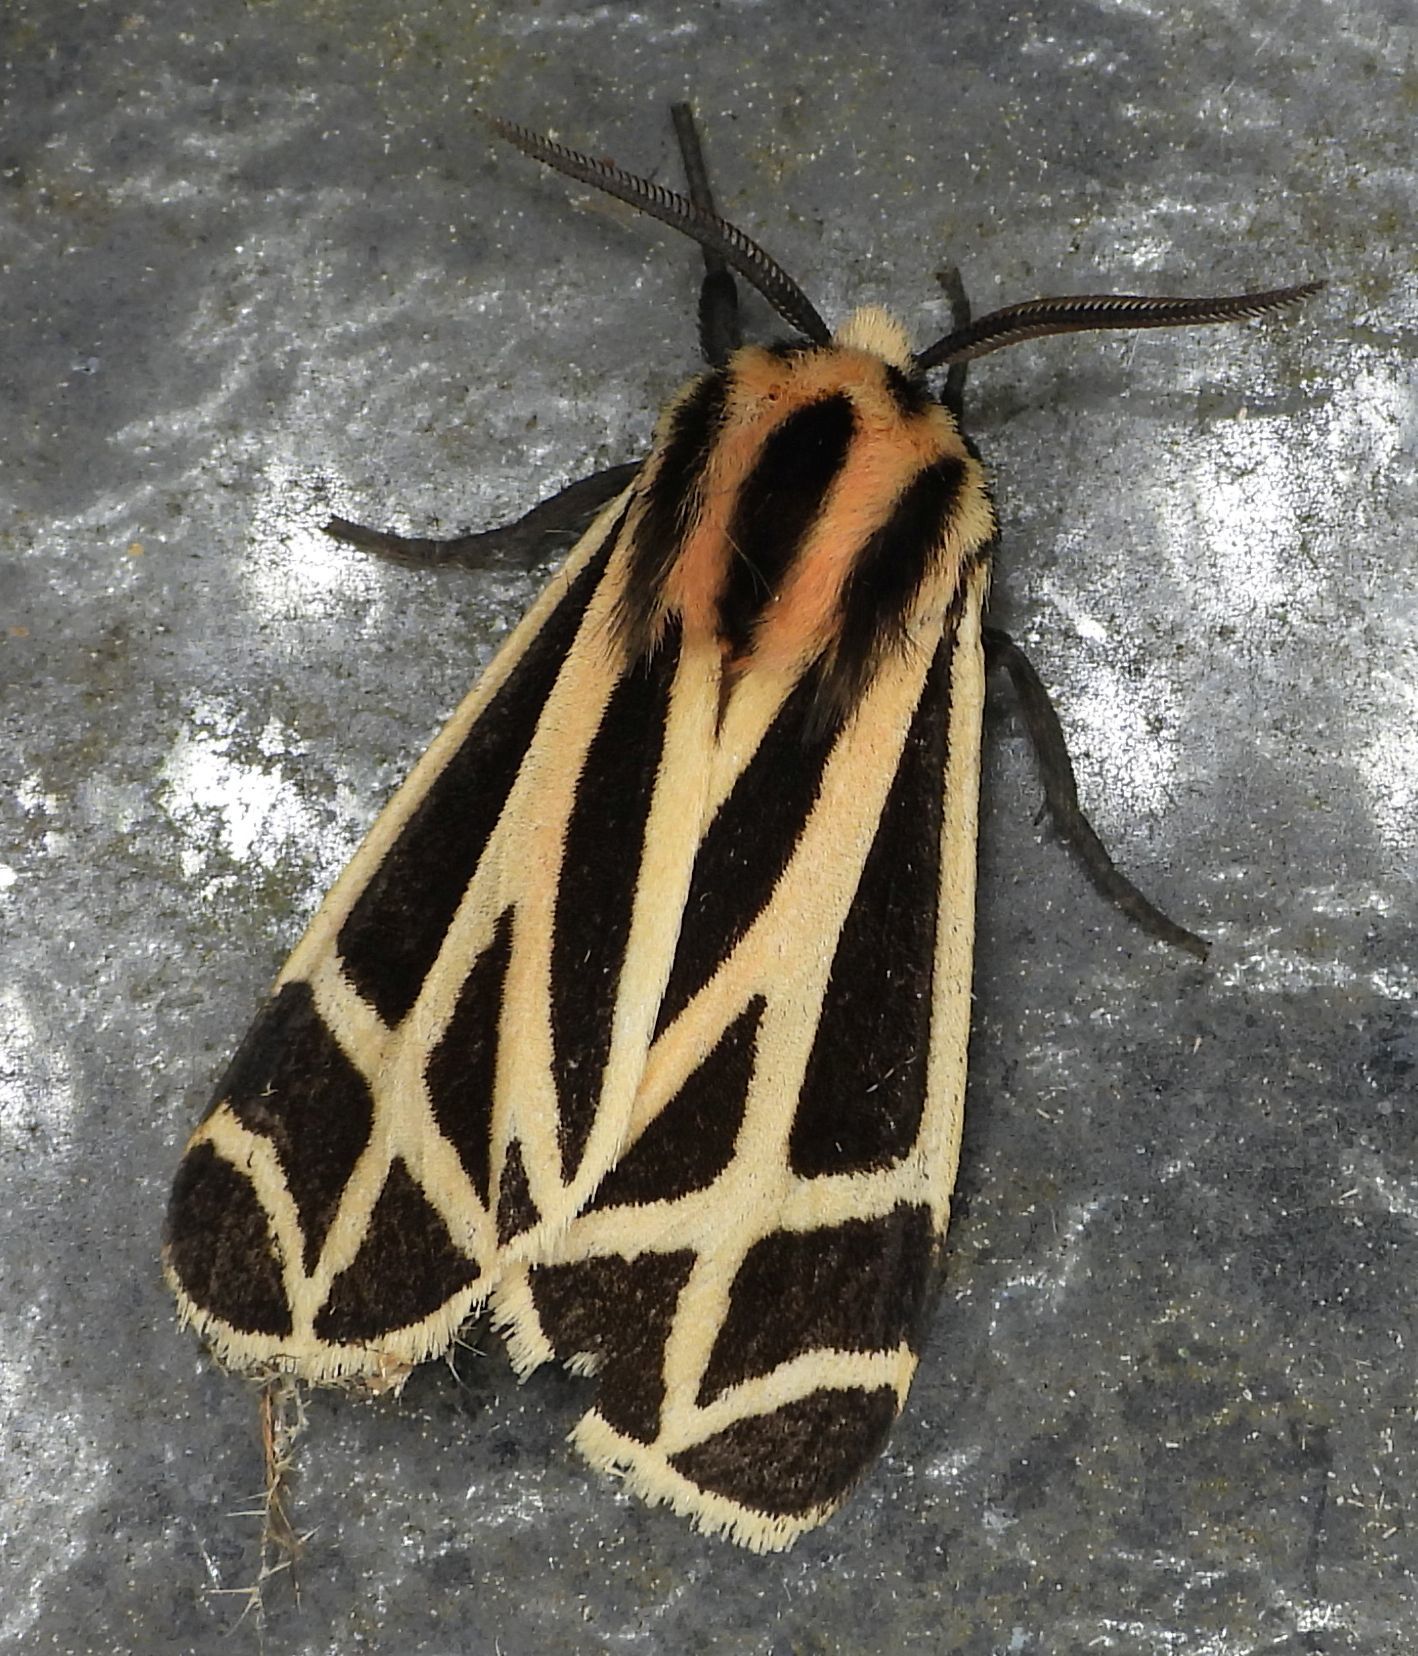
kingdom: Animalia
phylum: Arthropoda
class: Insecta
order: Lepidoptera
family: Erebidae
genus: Apantesis
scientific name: Apantesis phalerata
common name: Harnessed tiger moth
